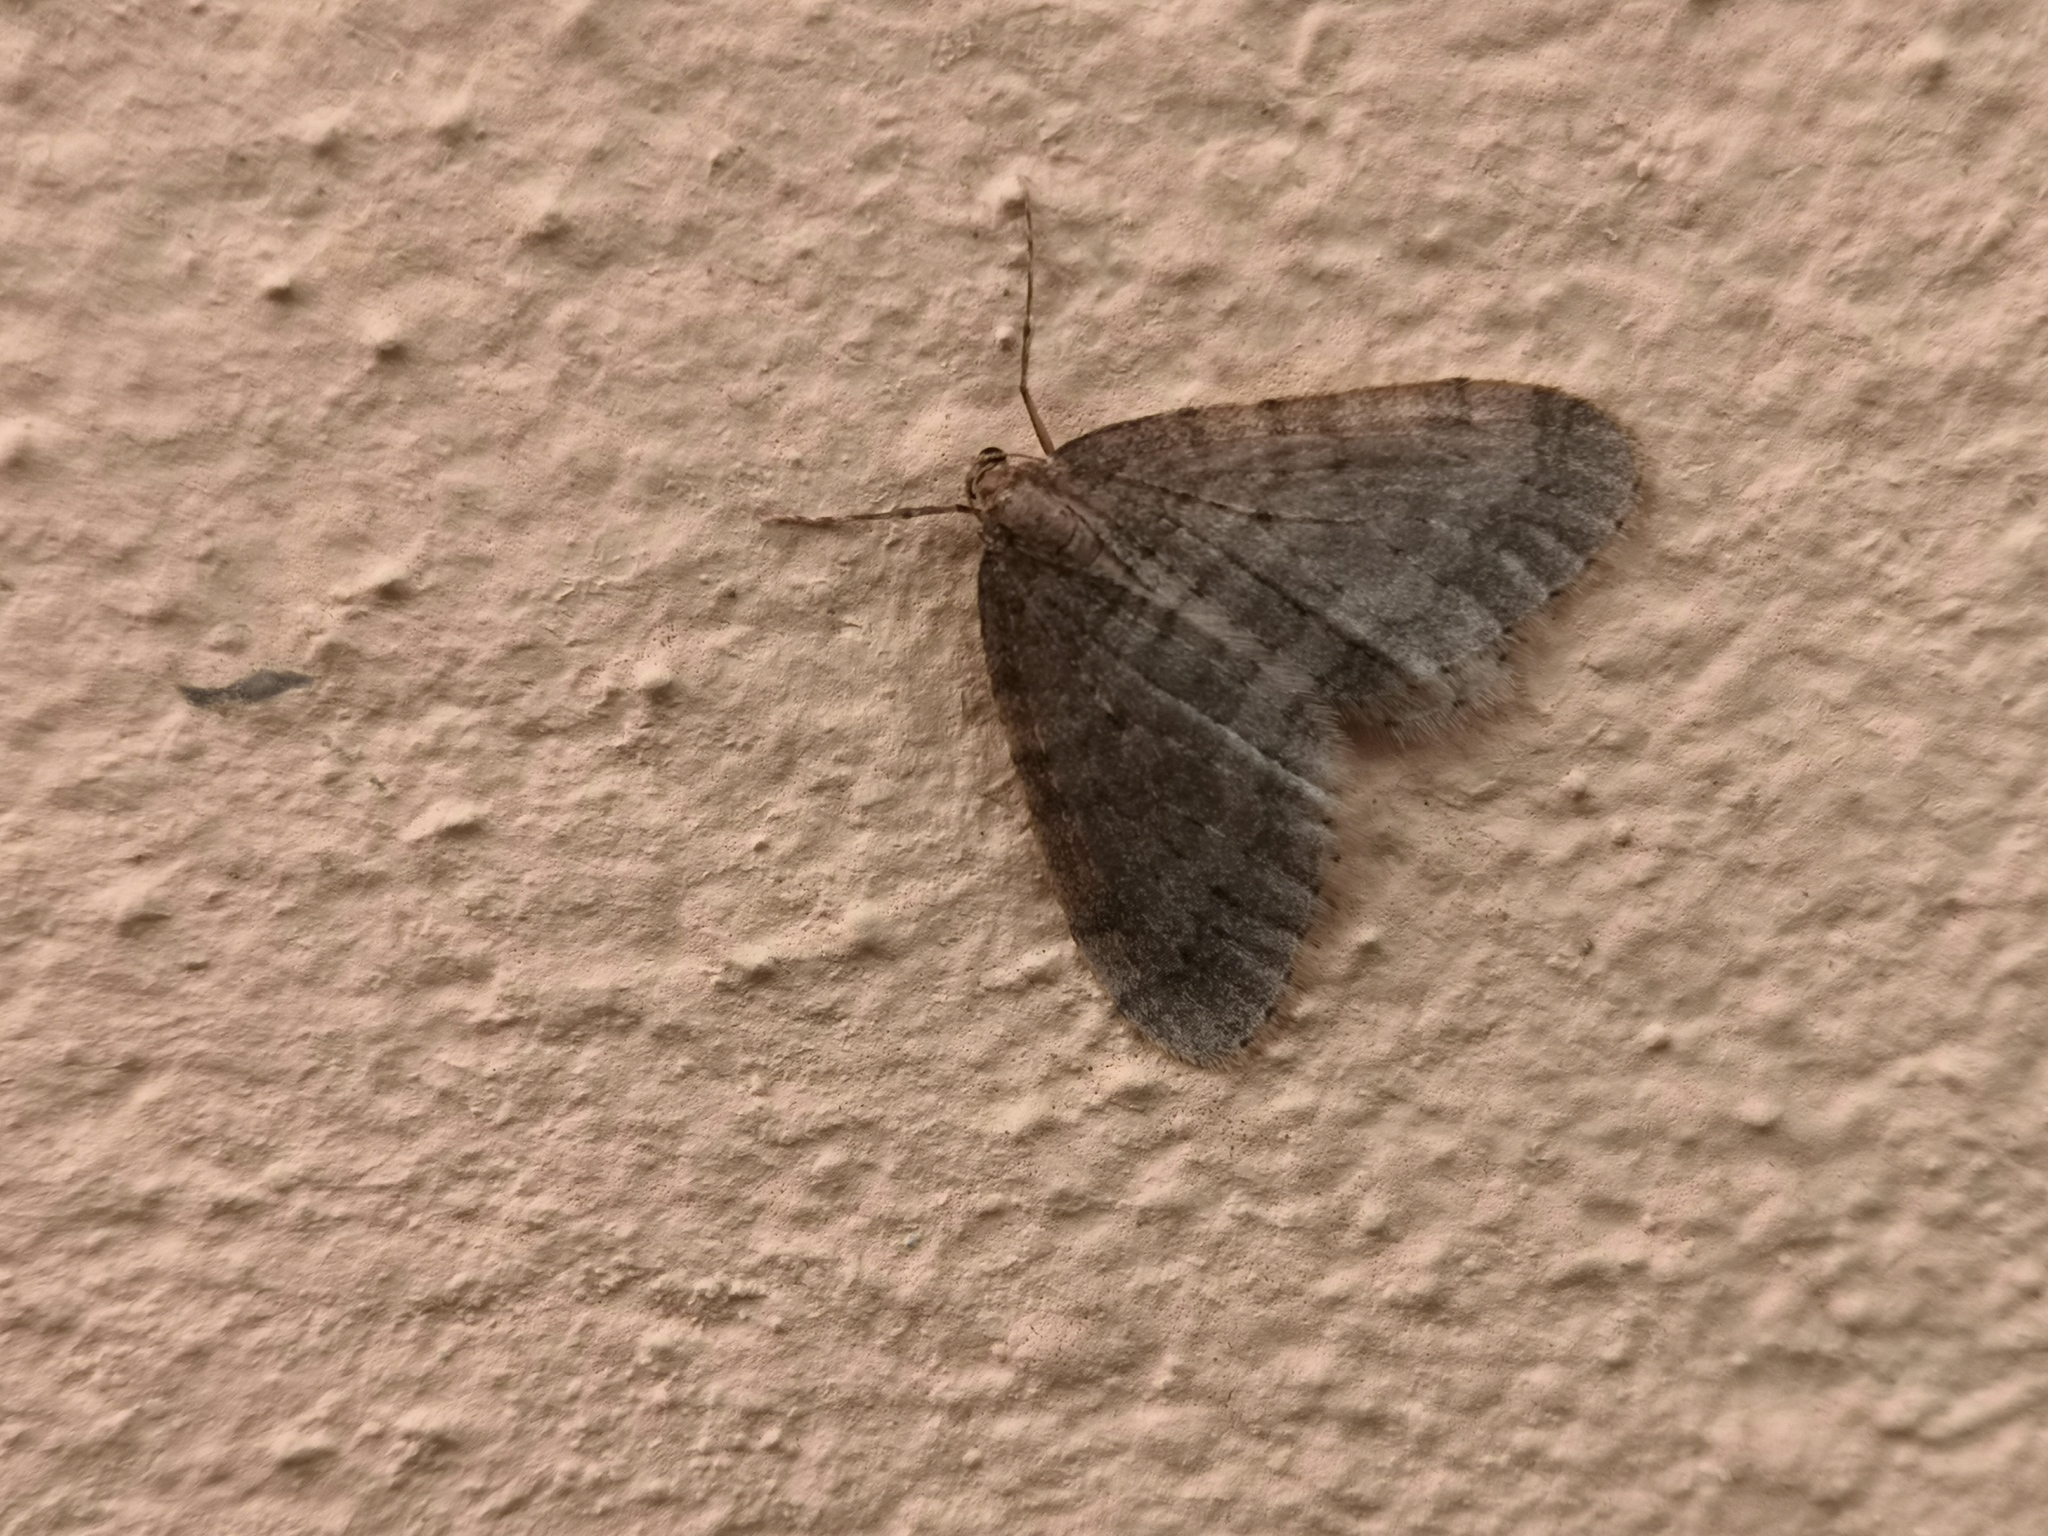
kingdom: Animalia
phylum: Arthropoda
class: Insecta
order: Lepidoptera
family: Geometridae
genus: Operophtera
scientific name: Operophtera brumata
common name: Winter moth
